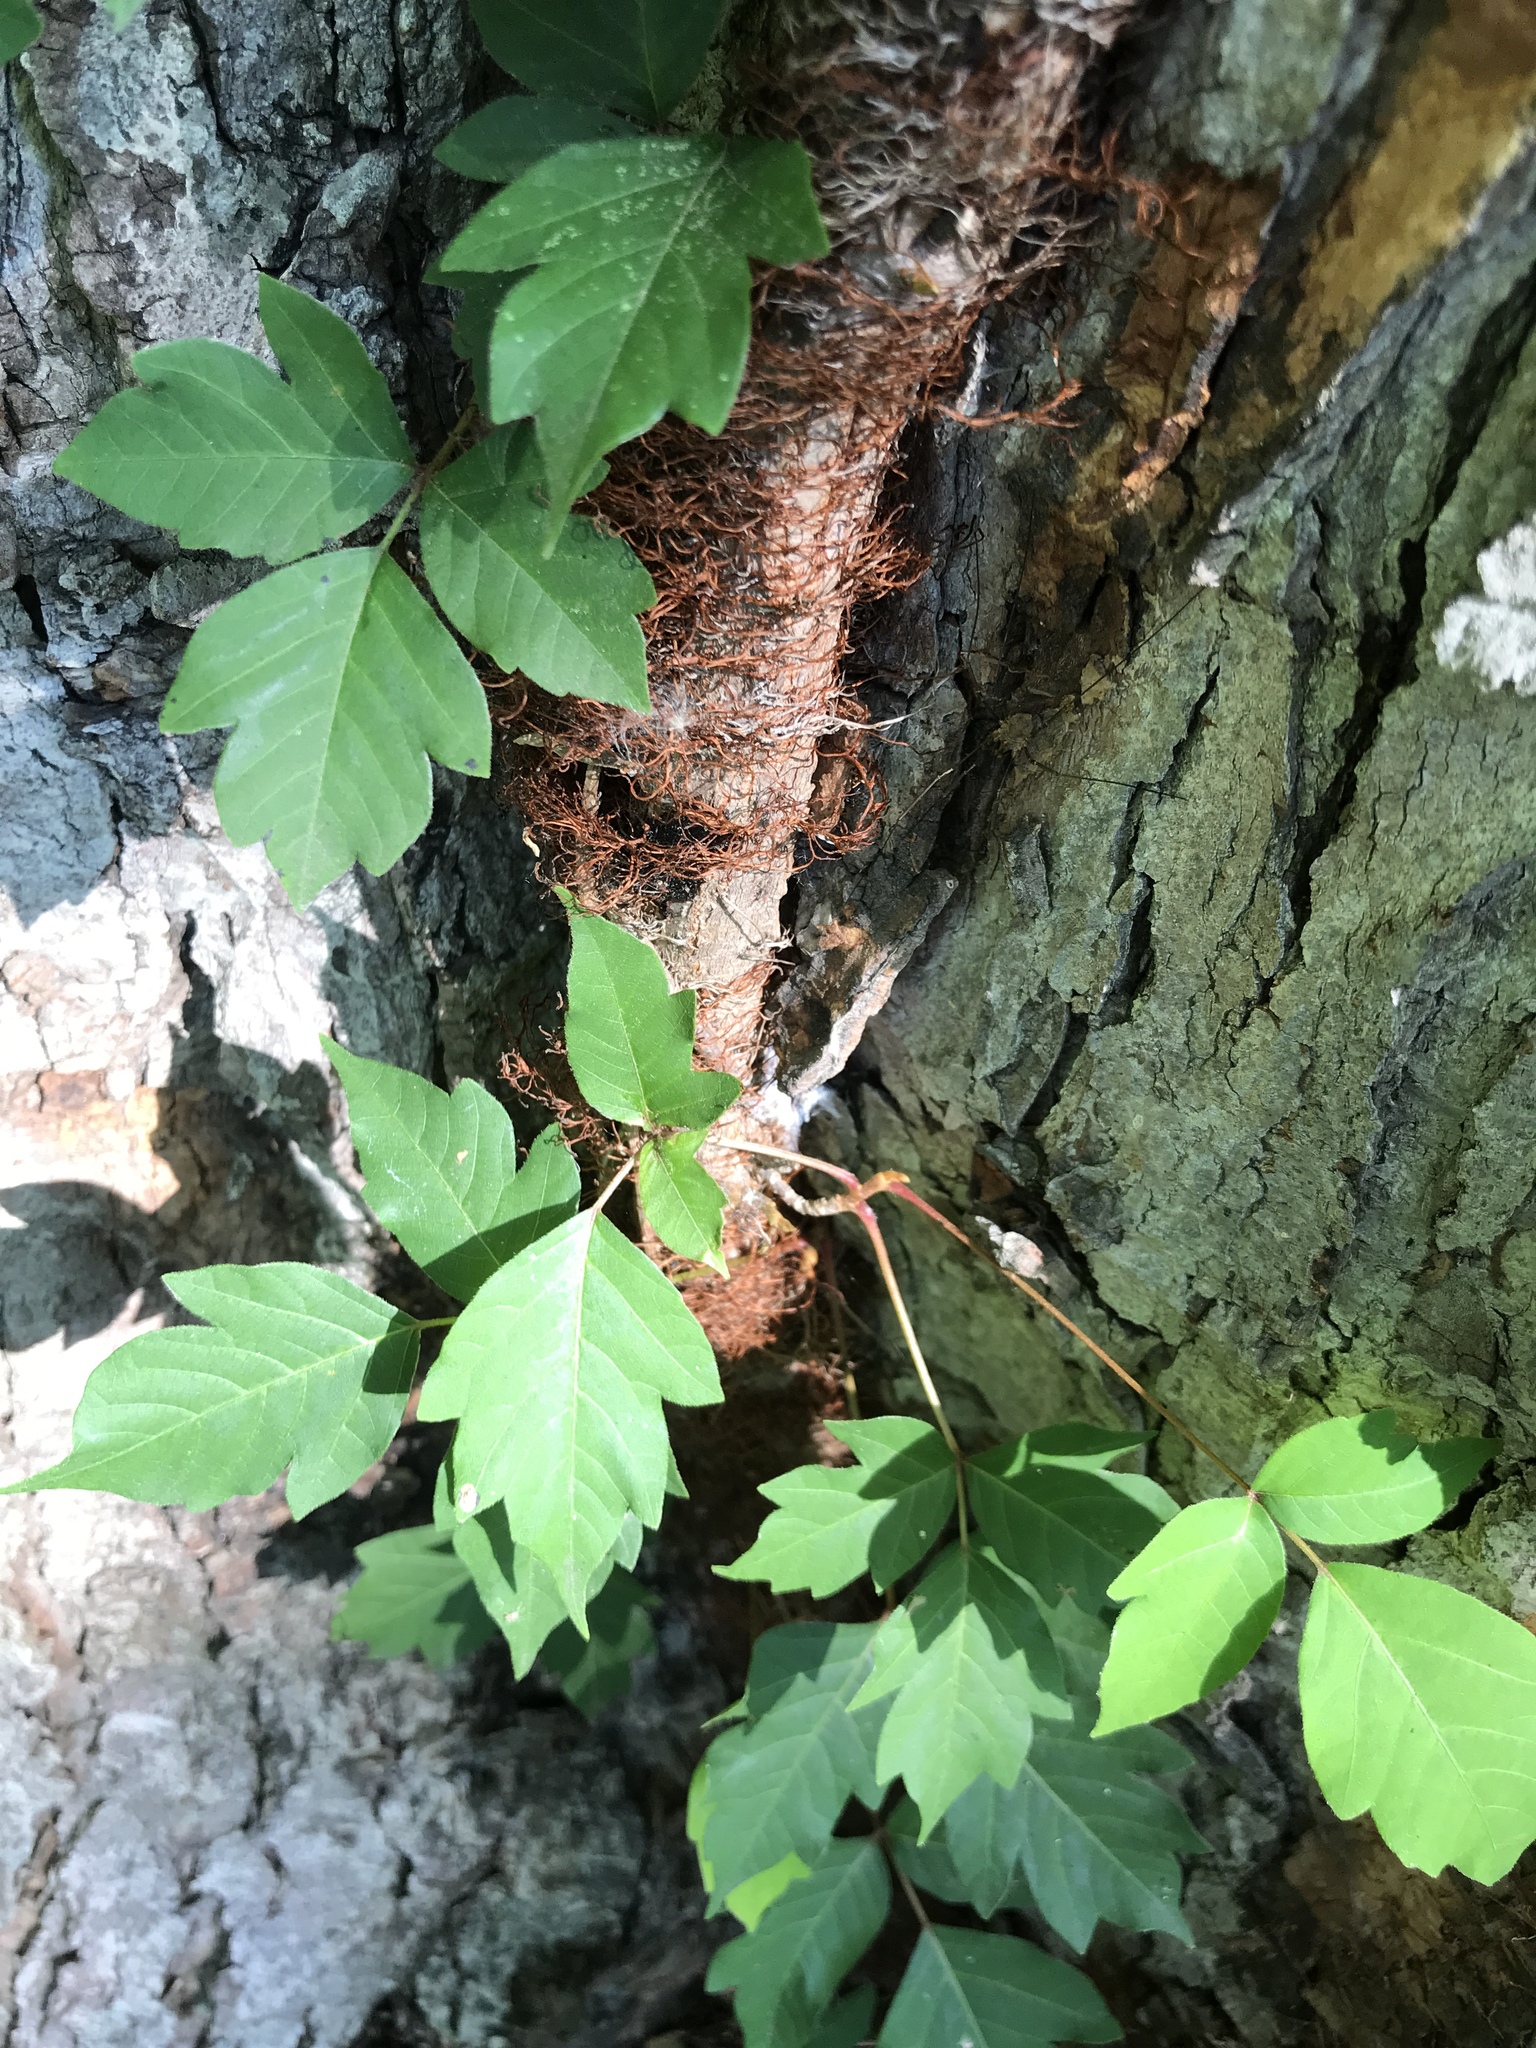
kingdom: Plantae
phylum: Tracheophyta
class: Magnoliopsida
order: Sapindales
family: Anacardiaceae
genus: Toxicodendron
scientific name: Toxicodendron radicans
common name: Poison ivy
